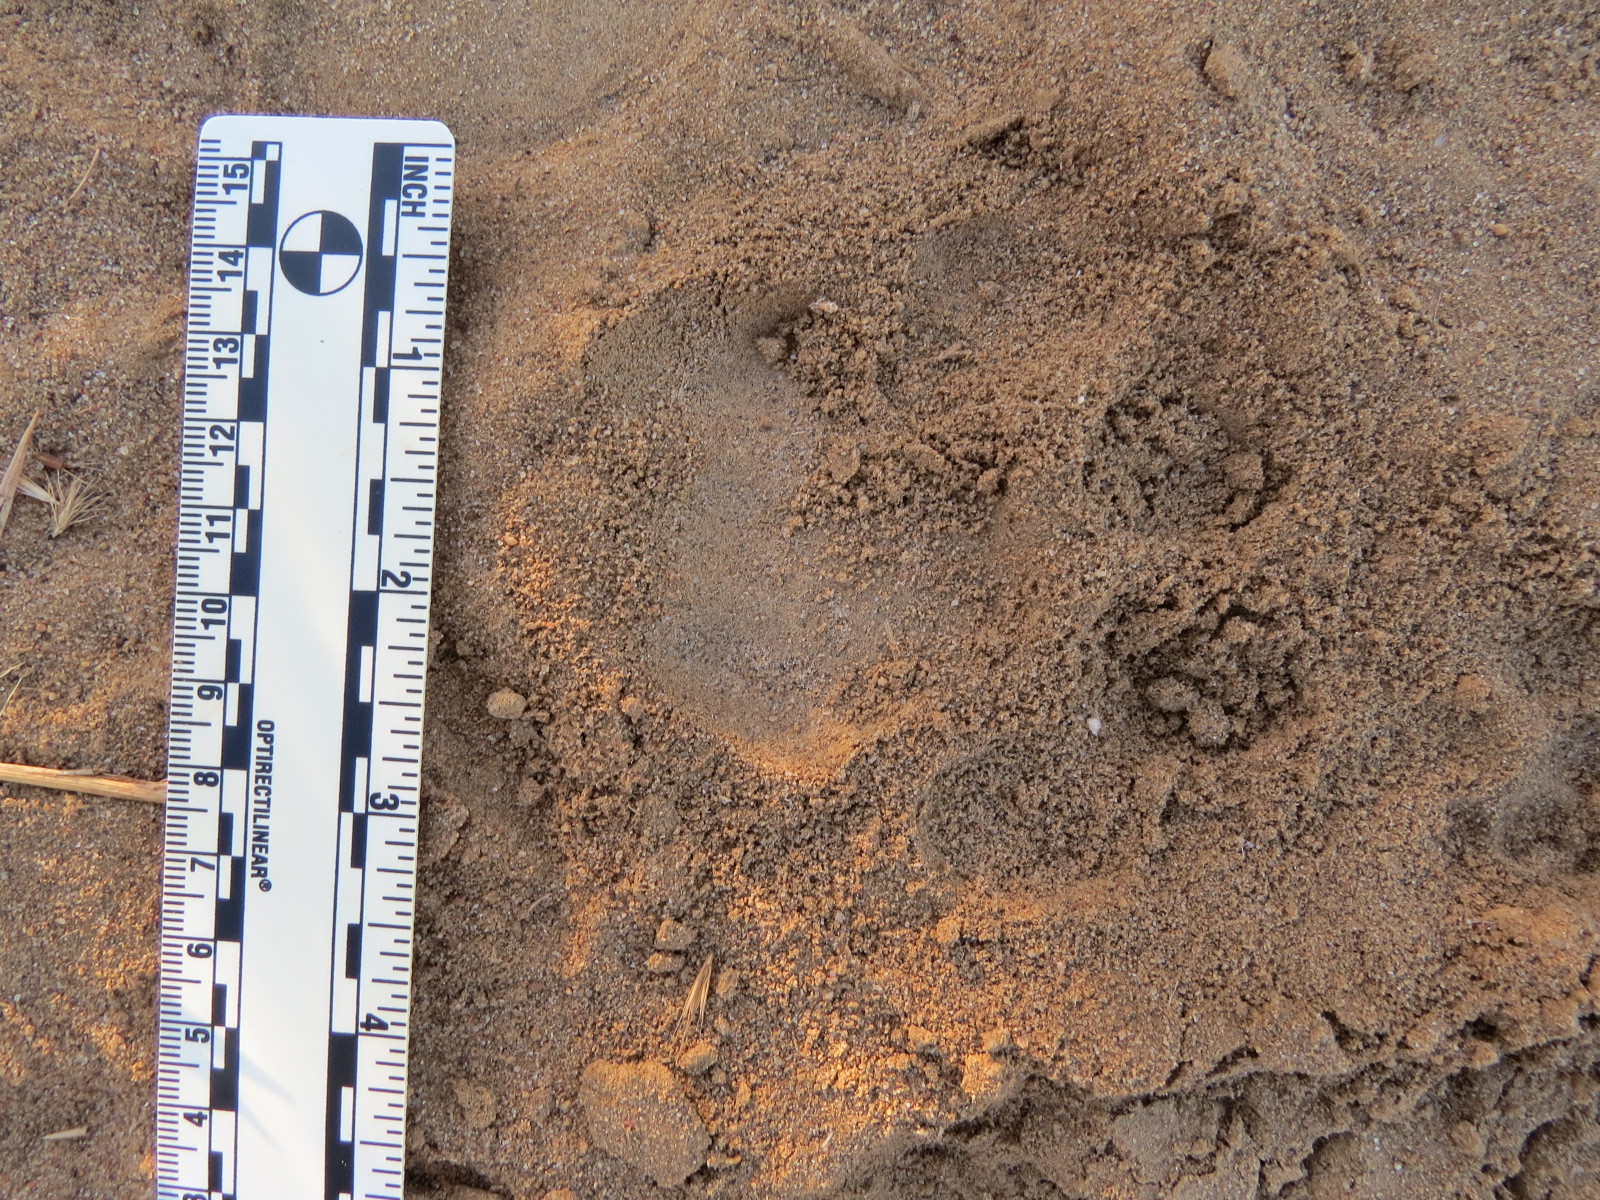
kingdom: Animalia
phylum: Chordata
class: Mammalia
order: Carnivora
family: Felidae
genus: Puma
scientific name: Puma concolor
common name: Puma
